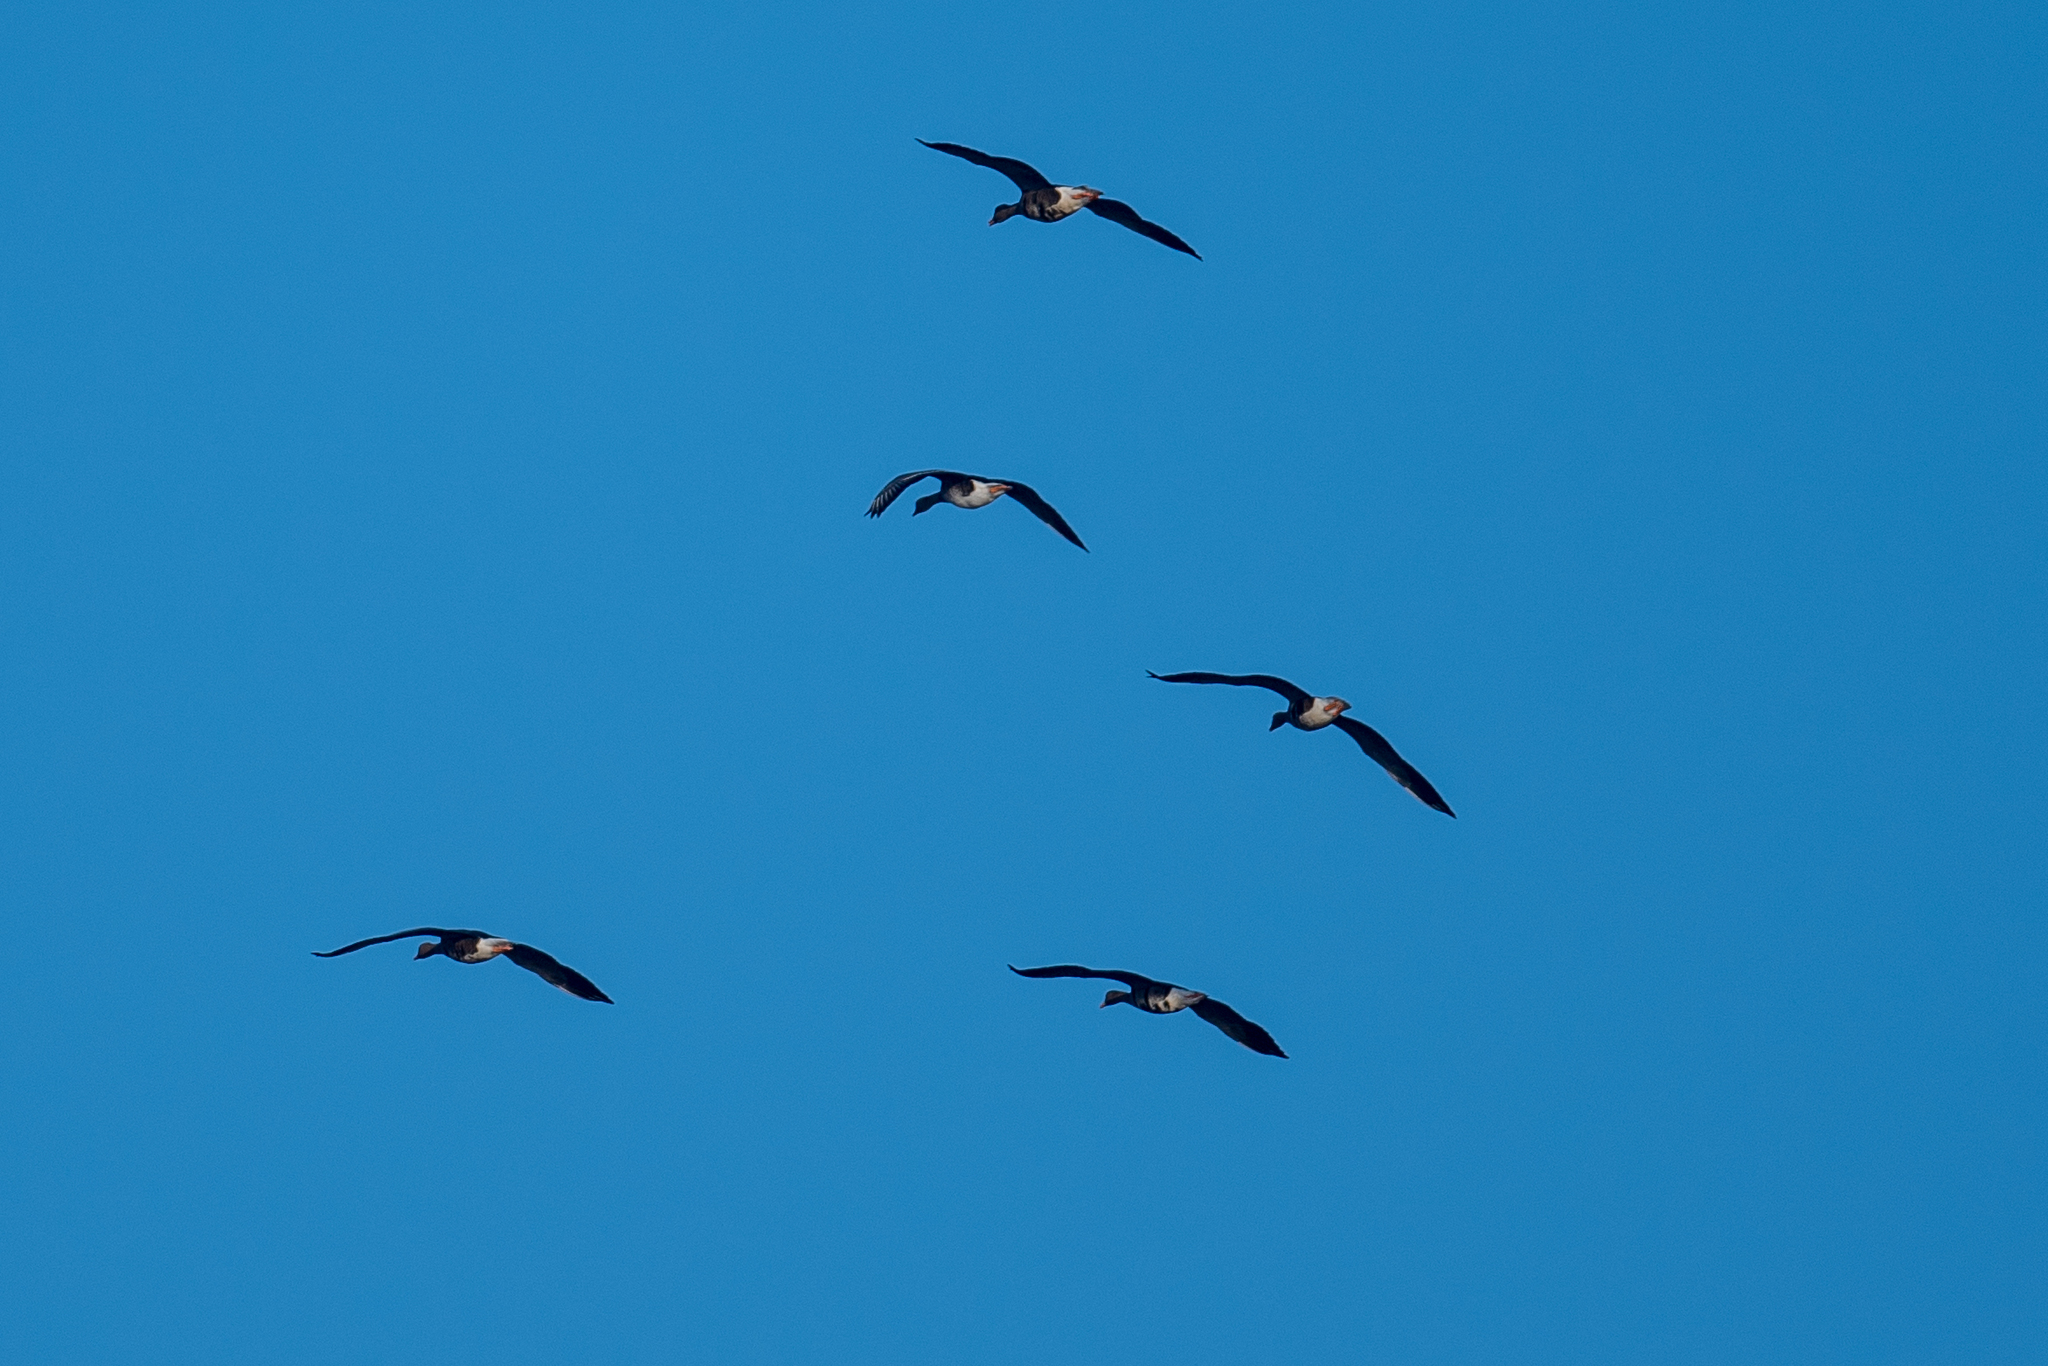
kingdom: Animalia
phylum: Chordata
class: Aves
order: Anseriformes
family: Anatidae
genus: Anser
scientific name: Anser albifrons
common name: Greater white-fronted goose
